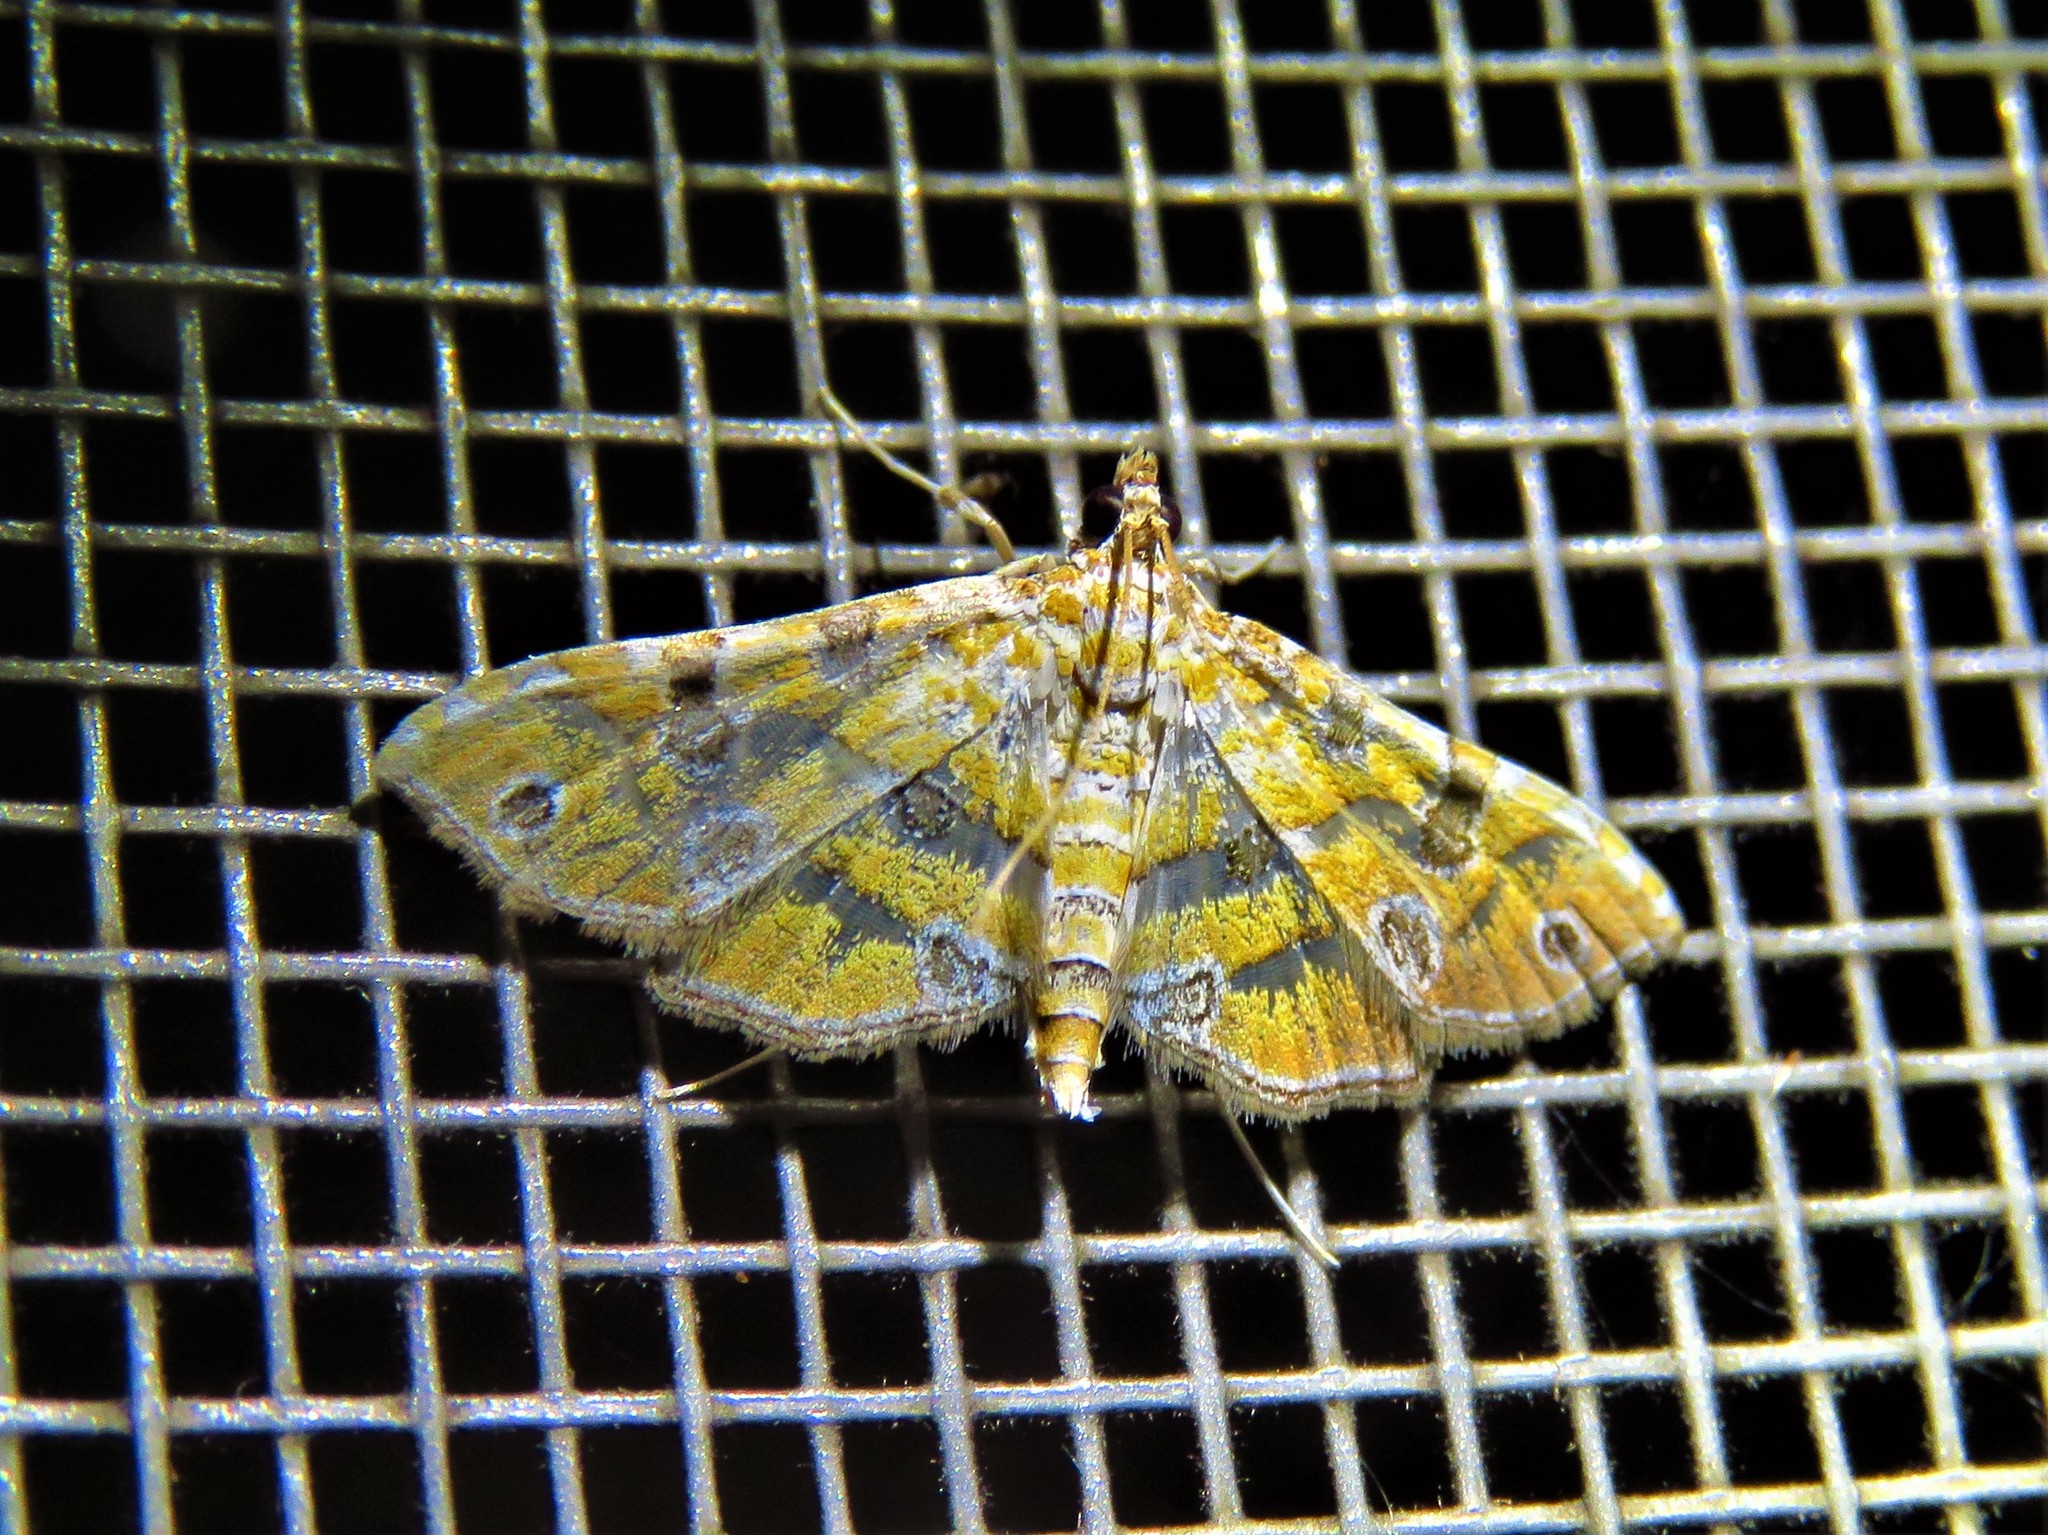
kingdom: Animalia
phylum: Arthropoda
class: Insecta
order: Lepidoptera
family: Crambidae
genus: Ommatospila
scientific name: Ommatospila narcaeusalis
